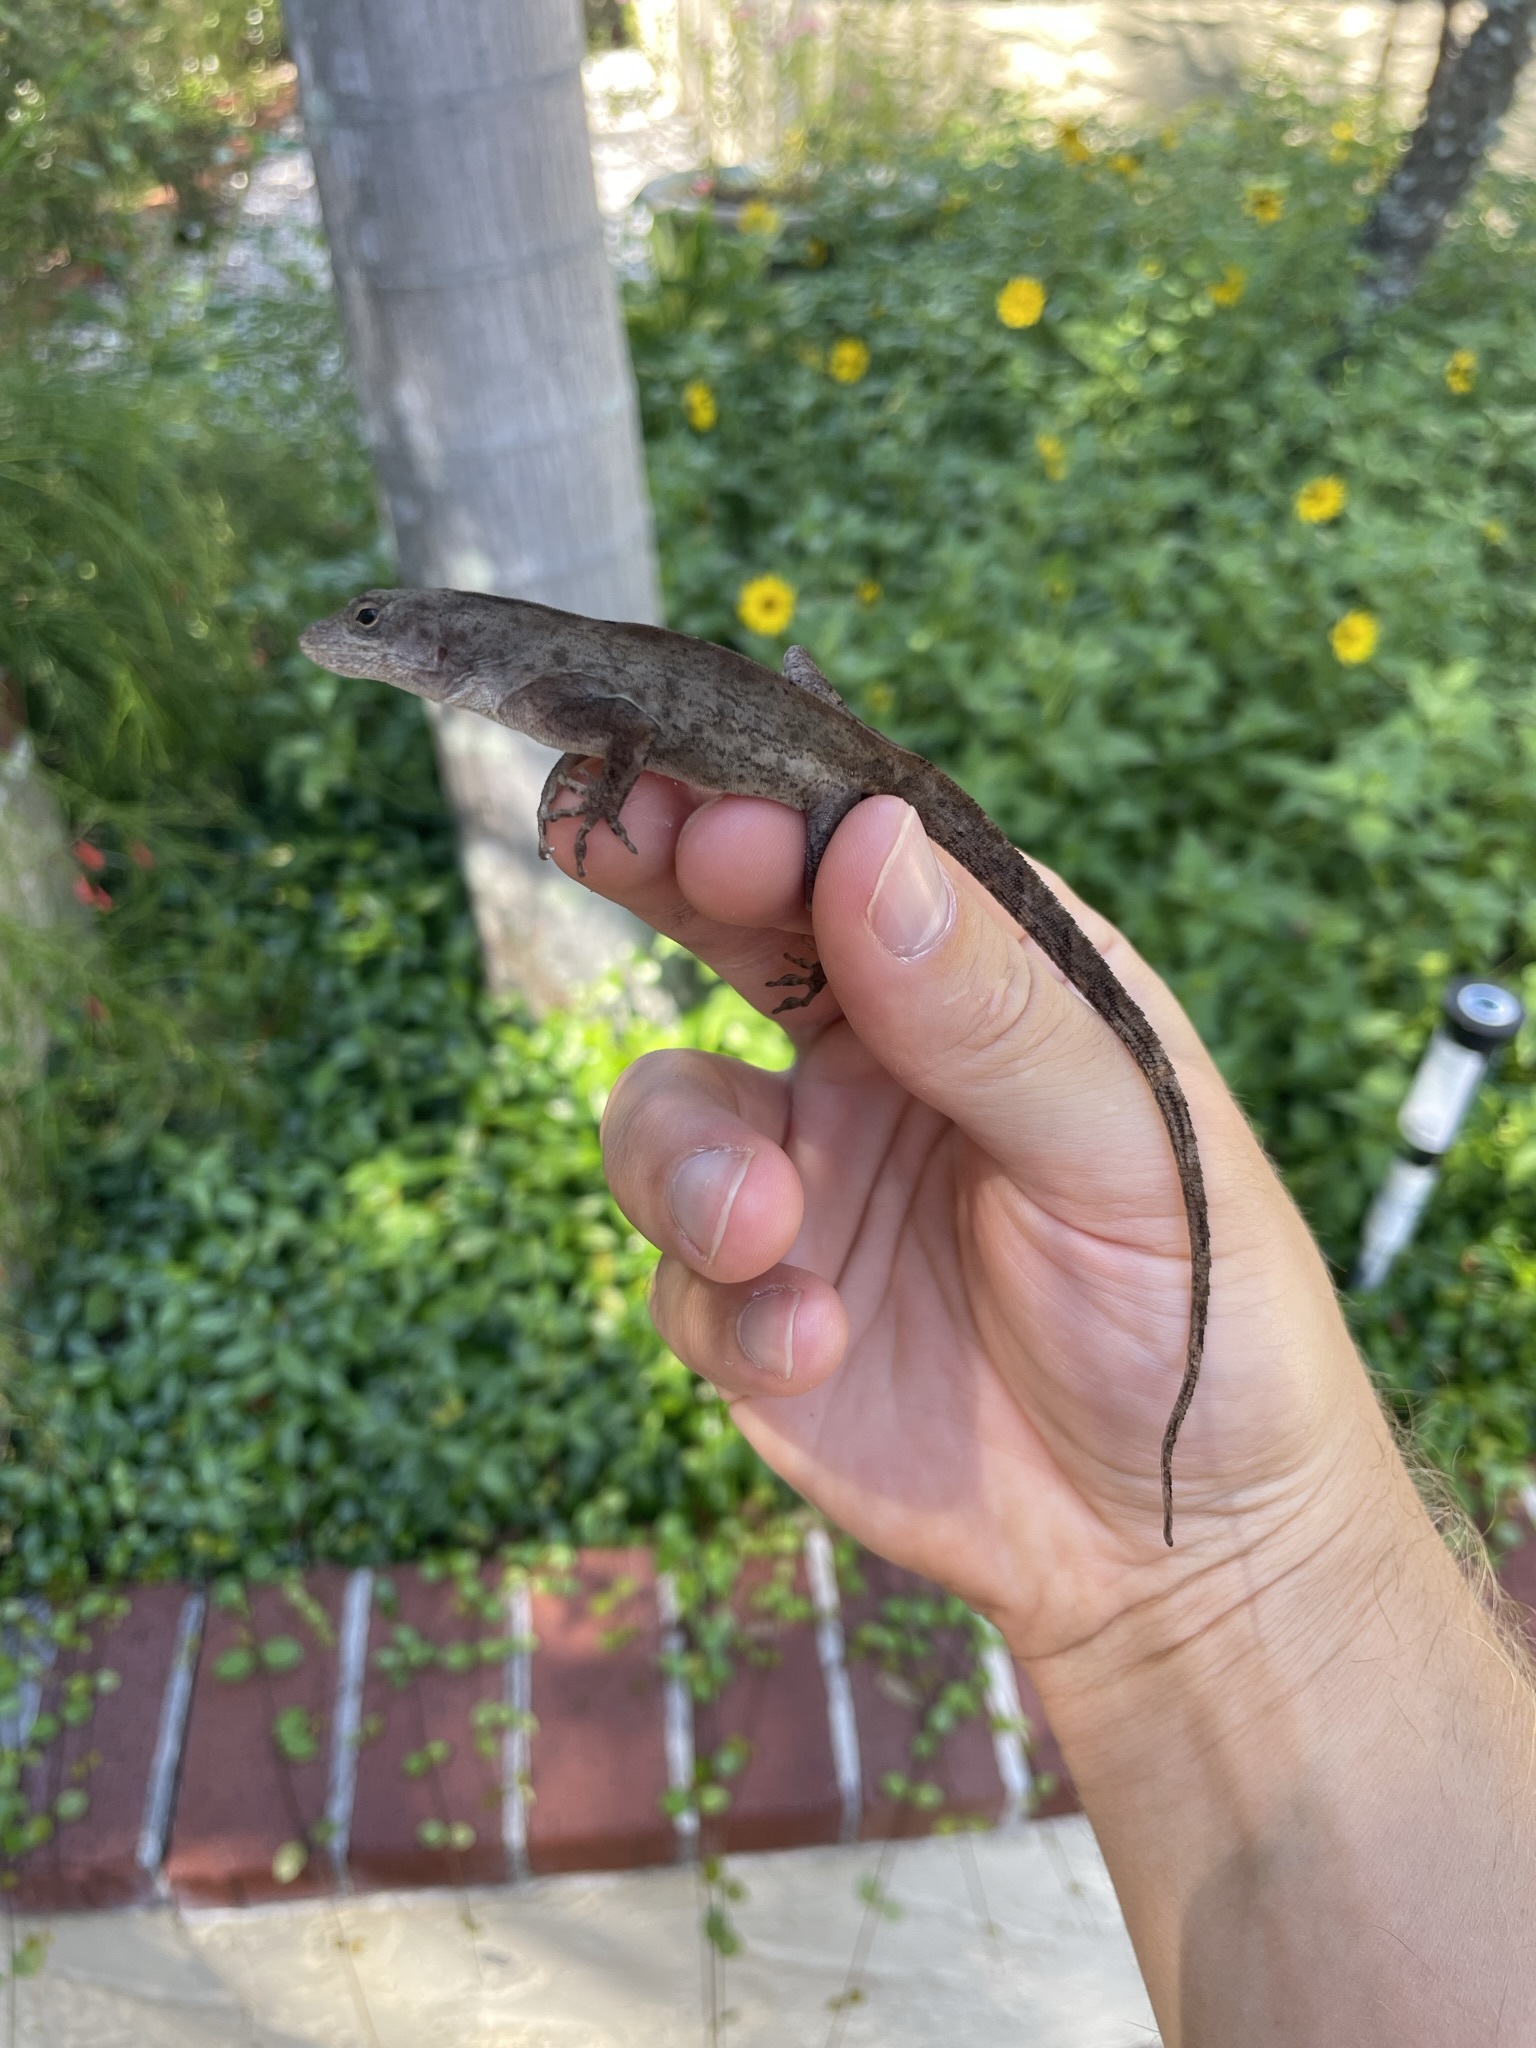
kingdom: Animalia
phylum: Chordata
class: Squamata
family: Dactyloidae
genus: Anolis
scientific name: Anolis sagrei
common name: Brown anole
